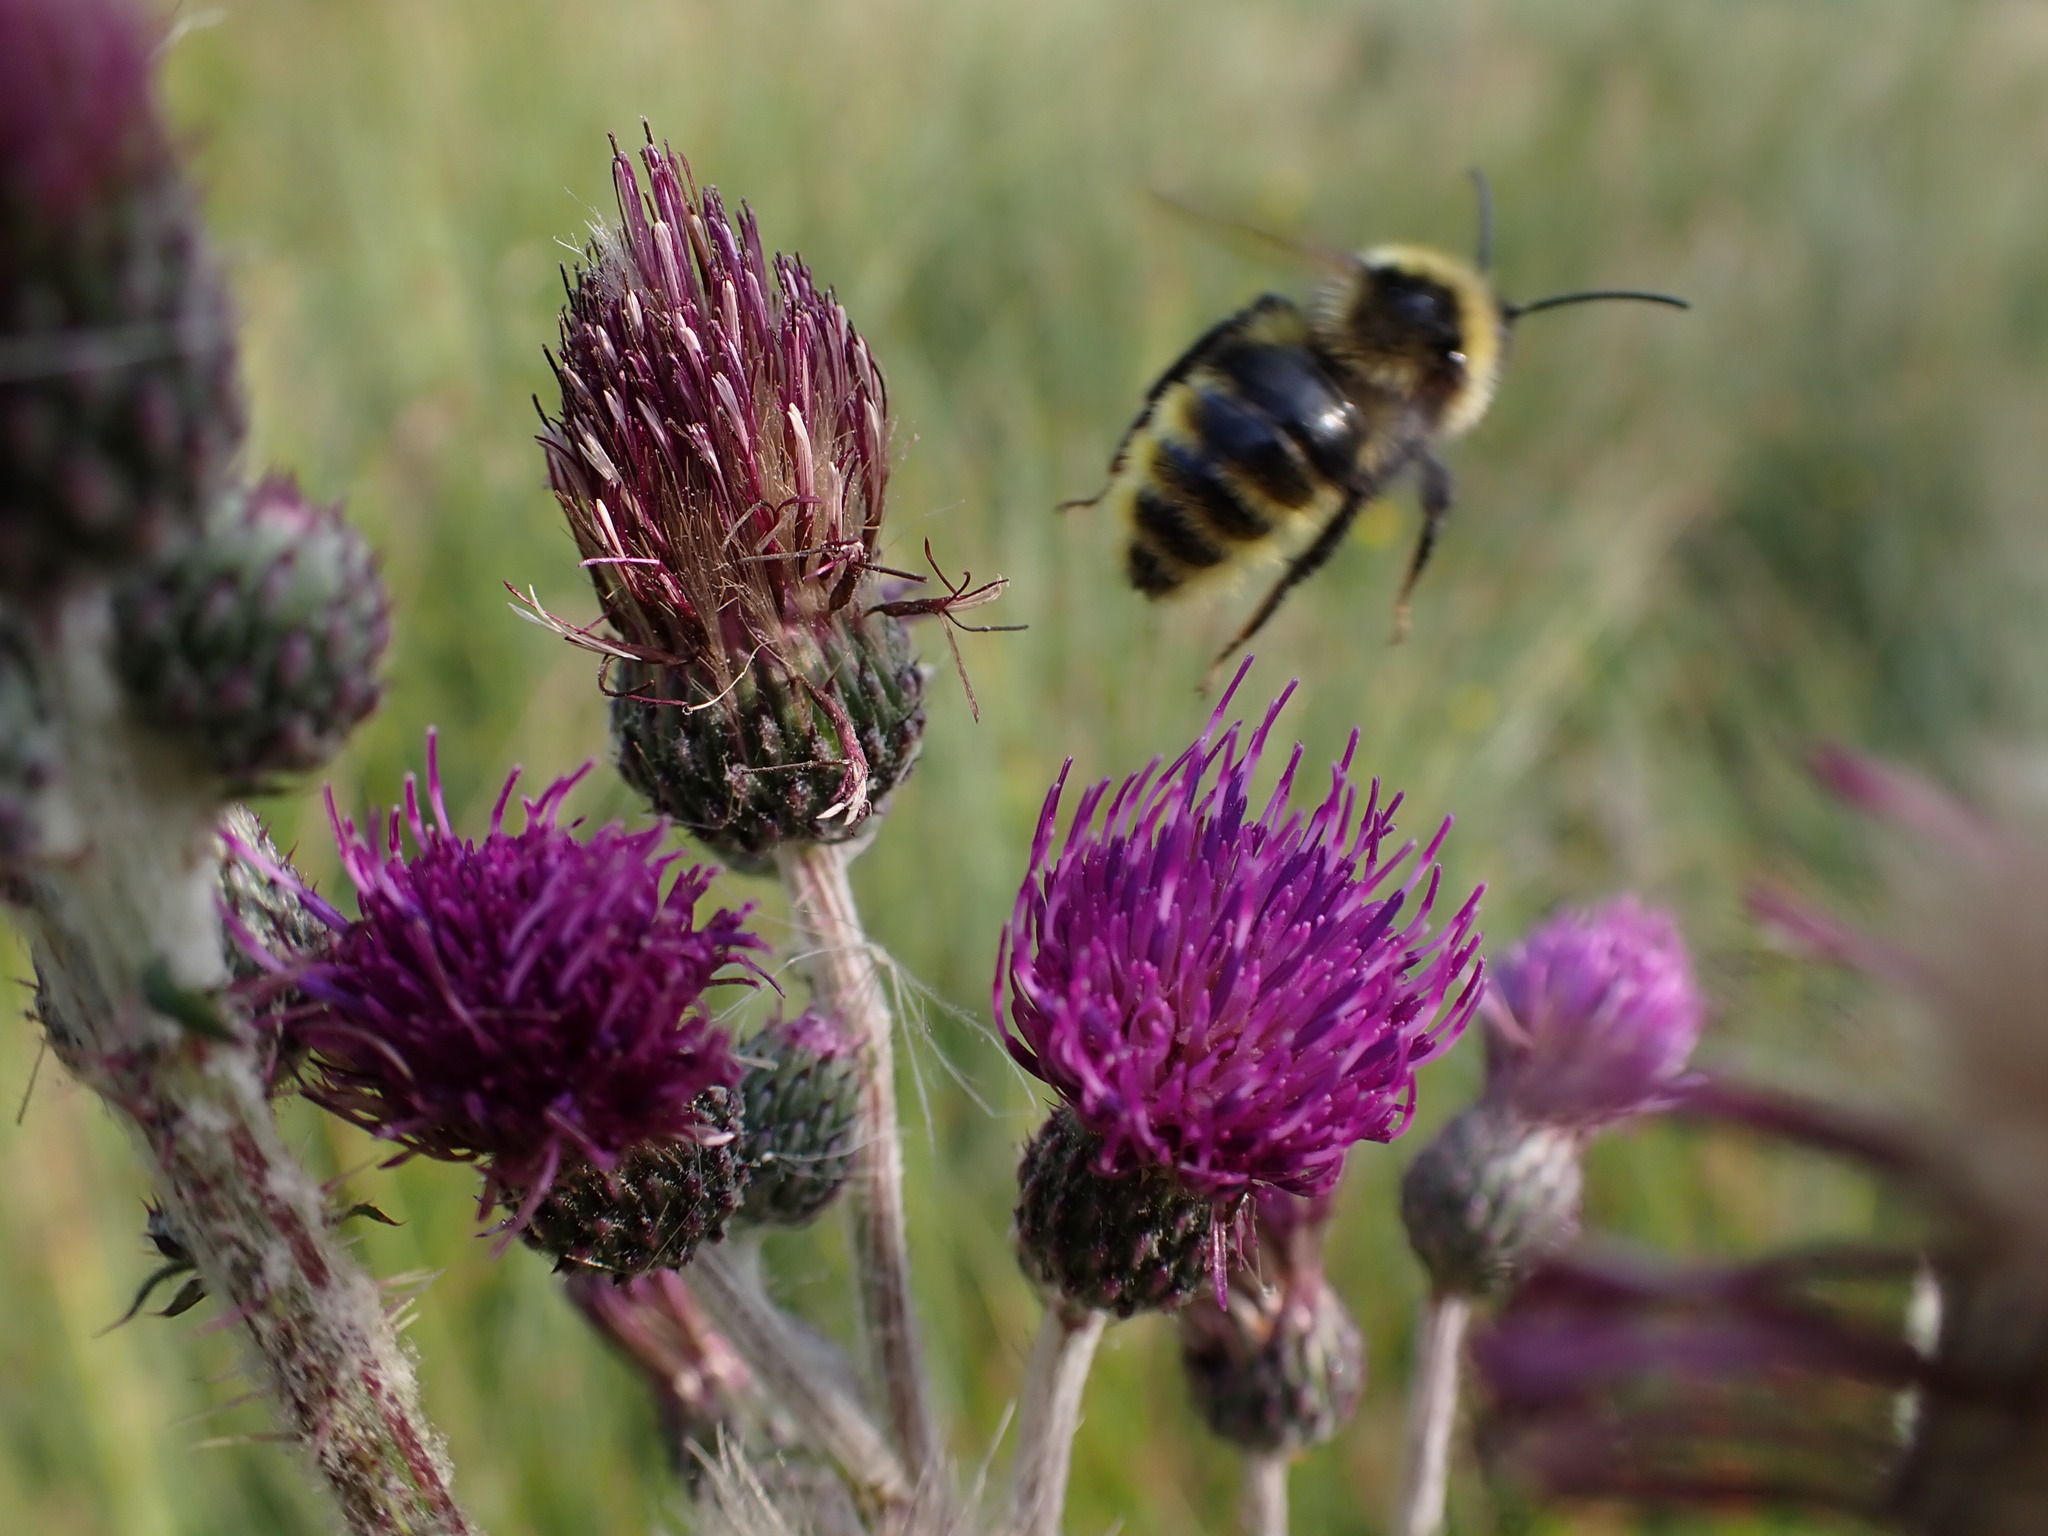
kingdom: Animalia
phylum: Arthropoda
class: Insecta
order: Hymenoptera
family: Apidae
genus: Bombus
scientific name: Bombus campestris
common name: Field cuckoo-bee
